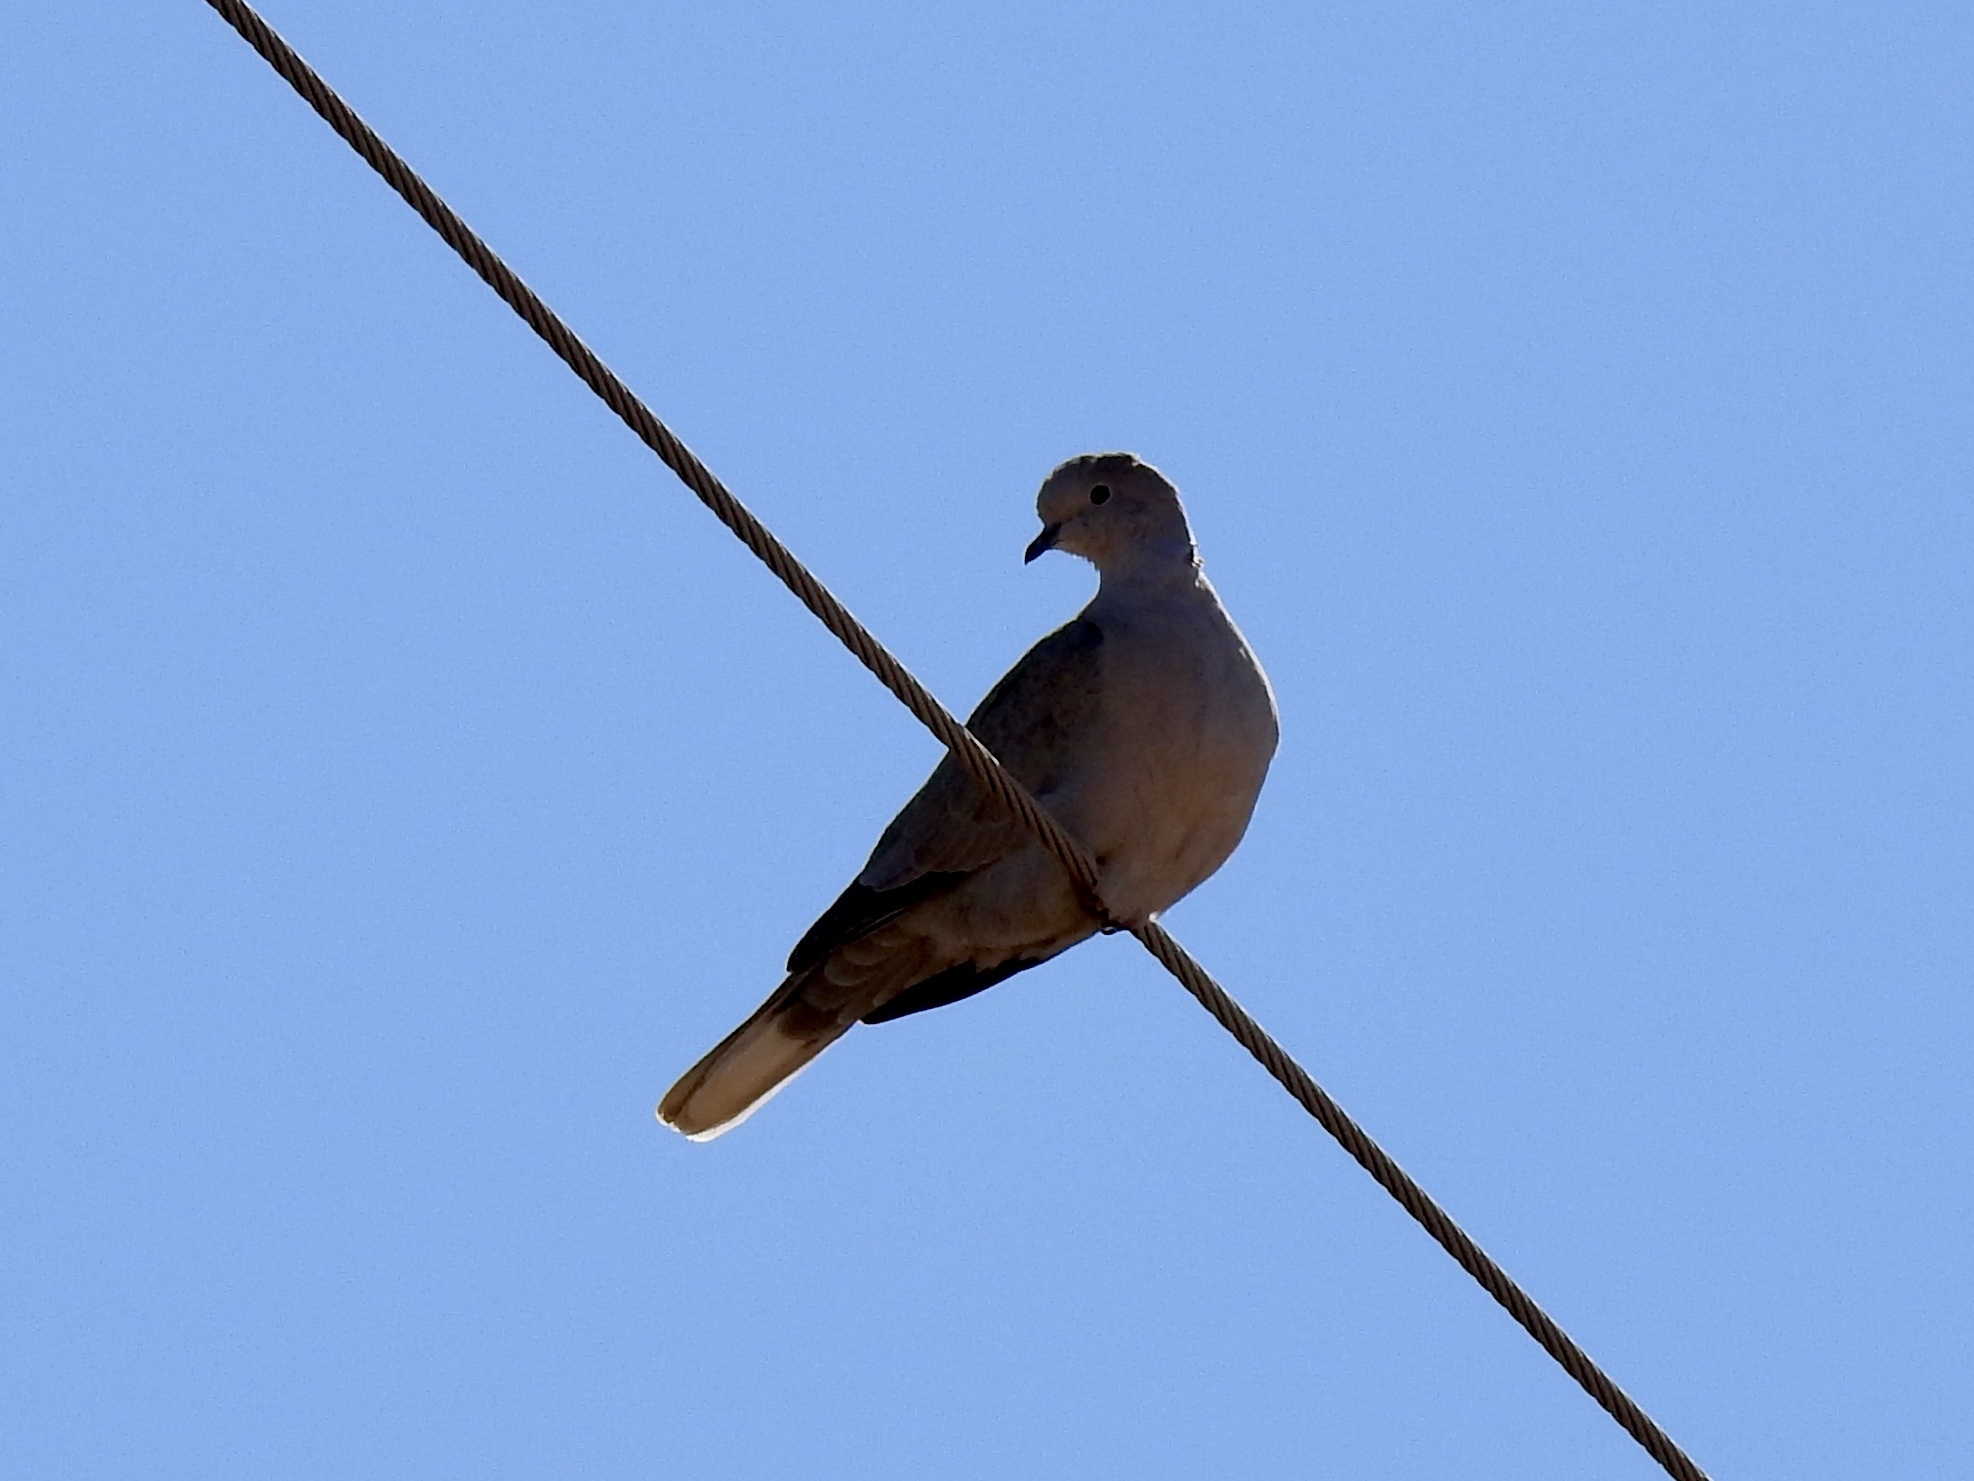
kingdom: Animalia
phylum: Chordata
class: Aves
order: Columbiformes
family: Columbidae
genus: Streptopelia
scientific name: Streptopelia decaocto
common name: Eurasian collared dove
